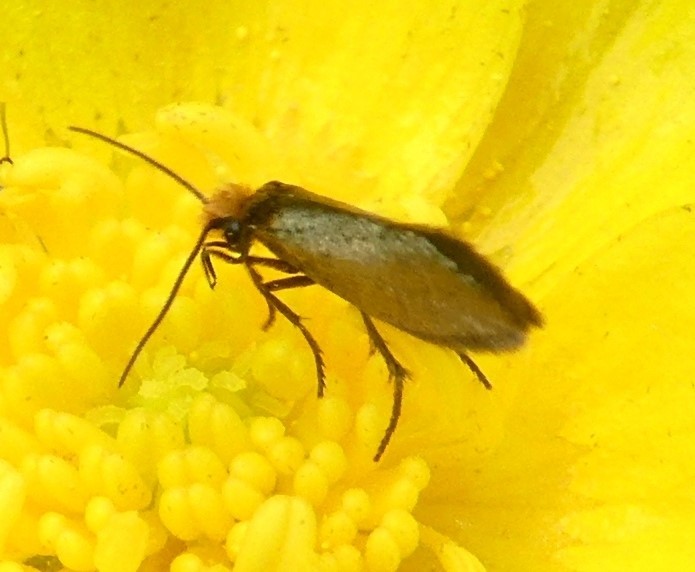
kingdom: Animalia
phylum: Arthropoda
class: Insecta
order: Lepidoptera
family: Micropterigidae
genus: Micropterix
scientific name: Micropterix calthella
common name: Plain gold
